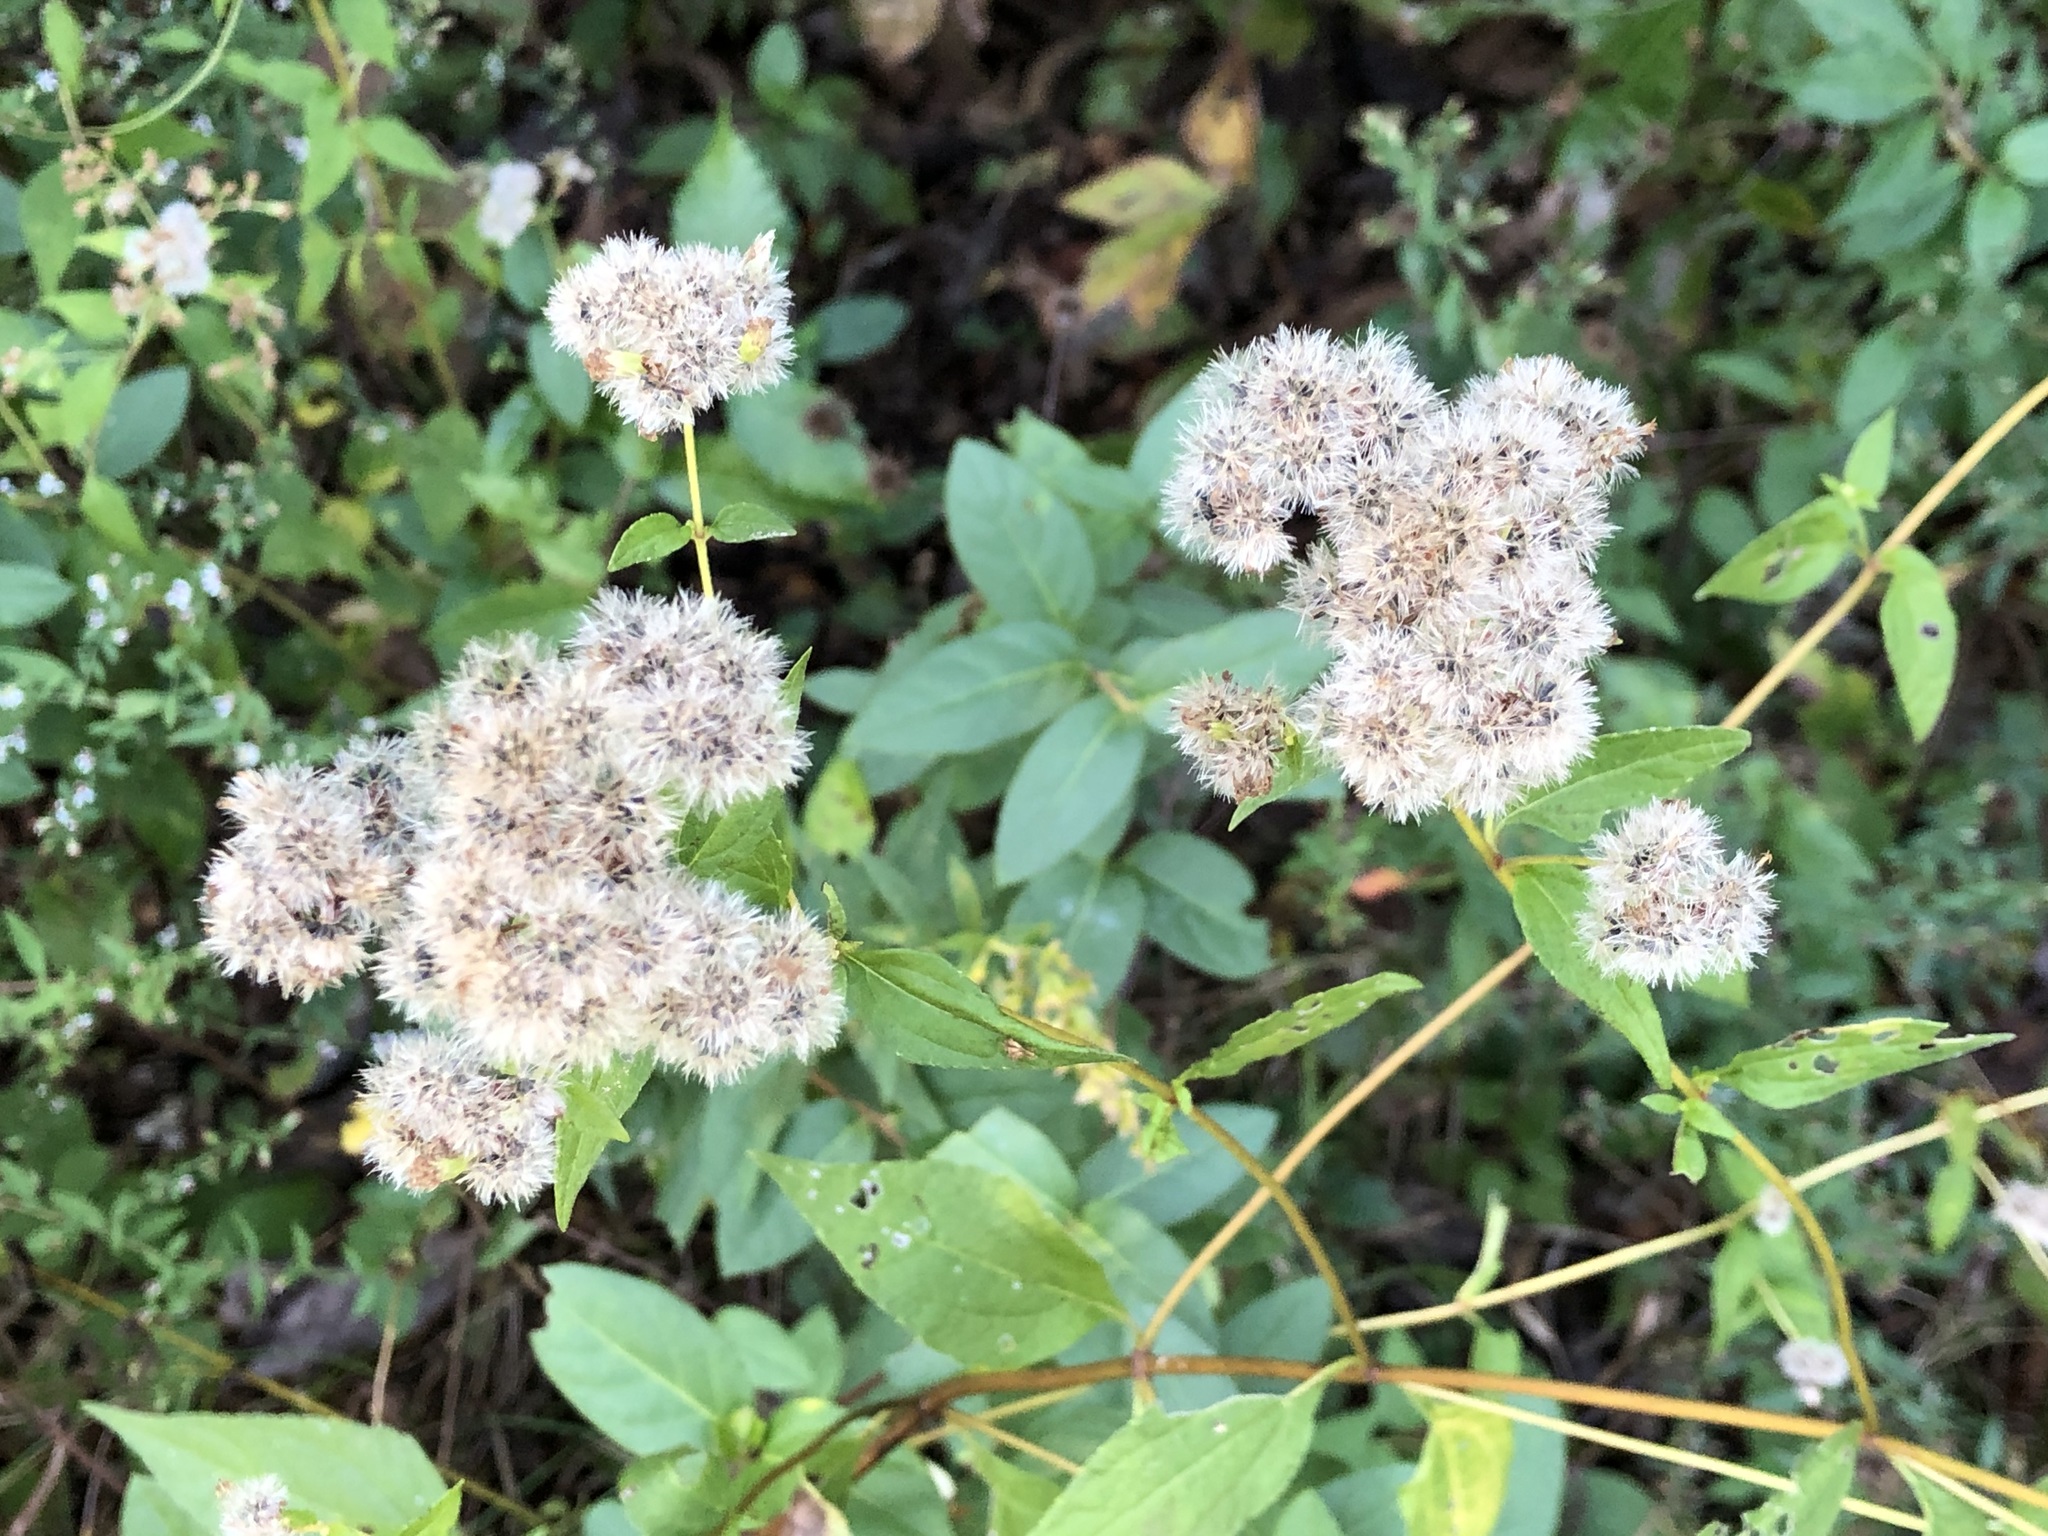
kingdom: Plantae
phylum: Tracheophyta
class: Magnoliopsida
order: Asterales
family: Asteraceae
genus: Ageratina
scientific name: Ageratina altissima
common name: White snakeroot
